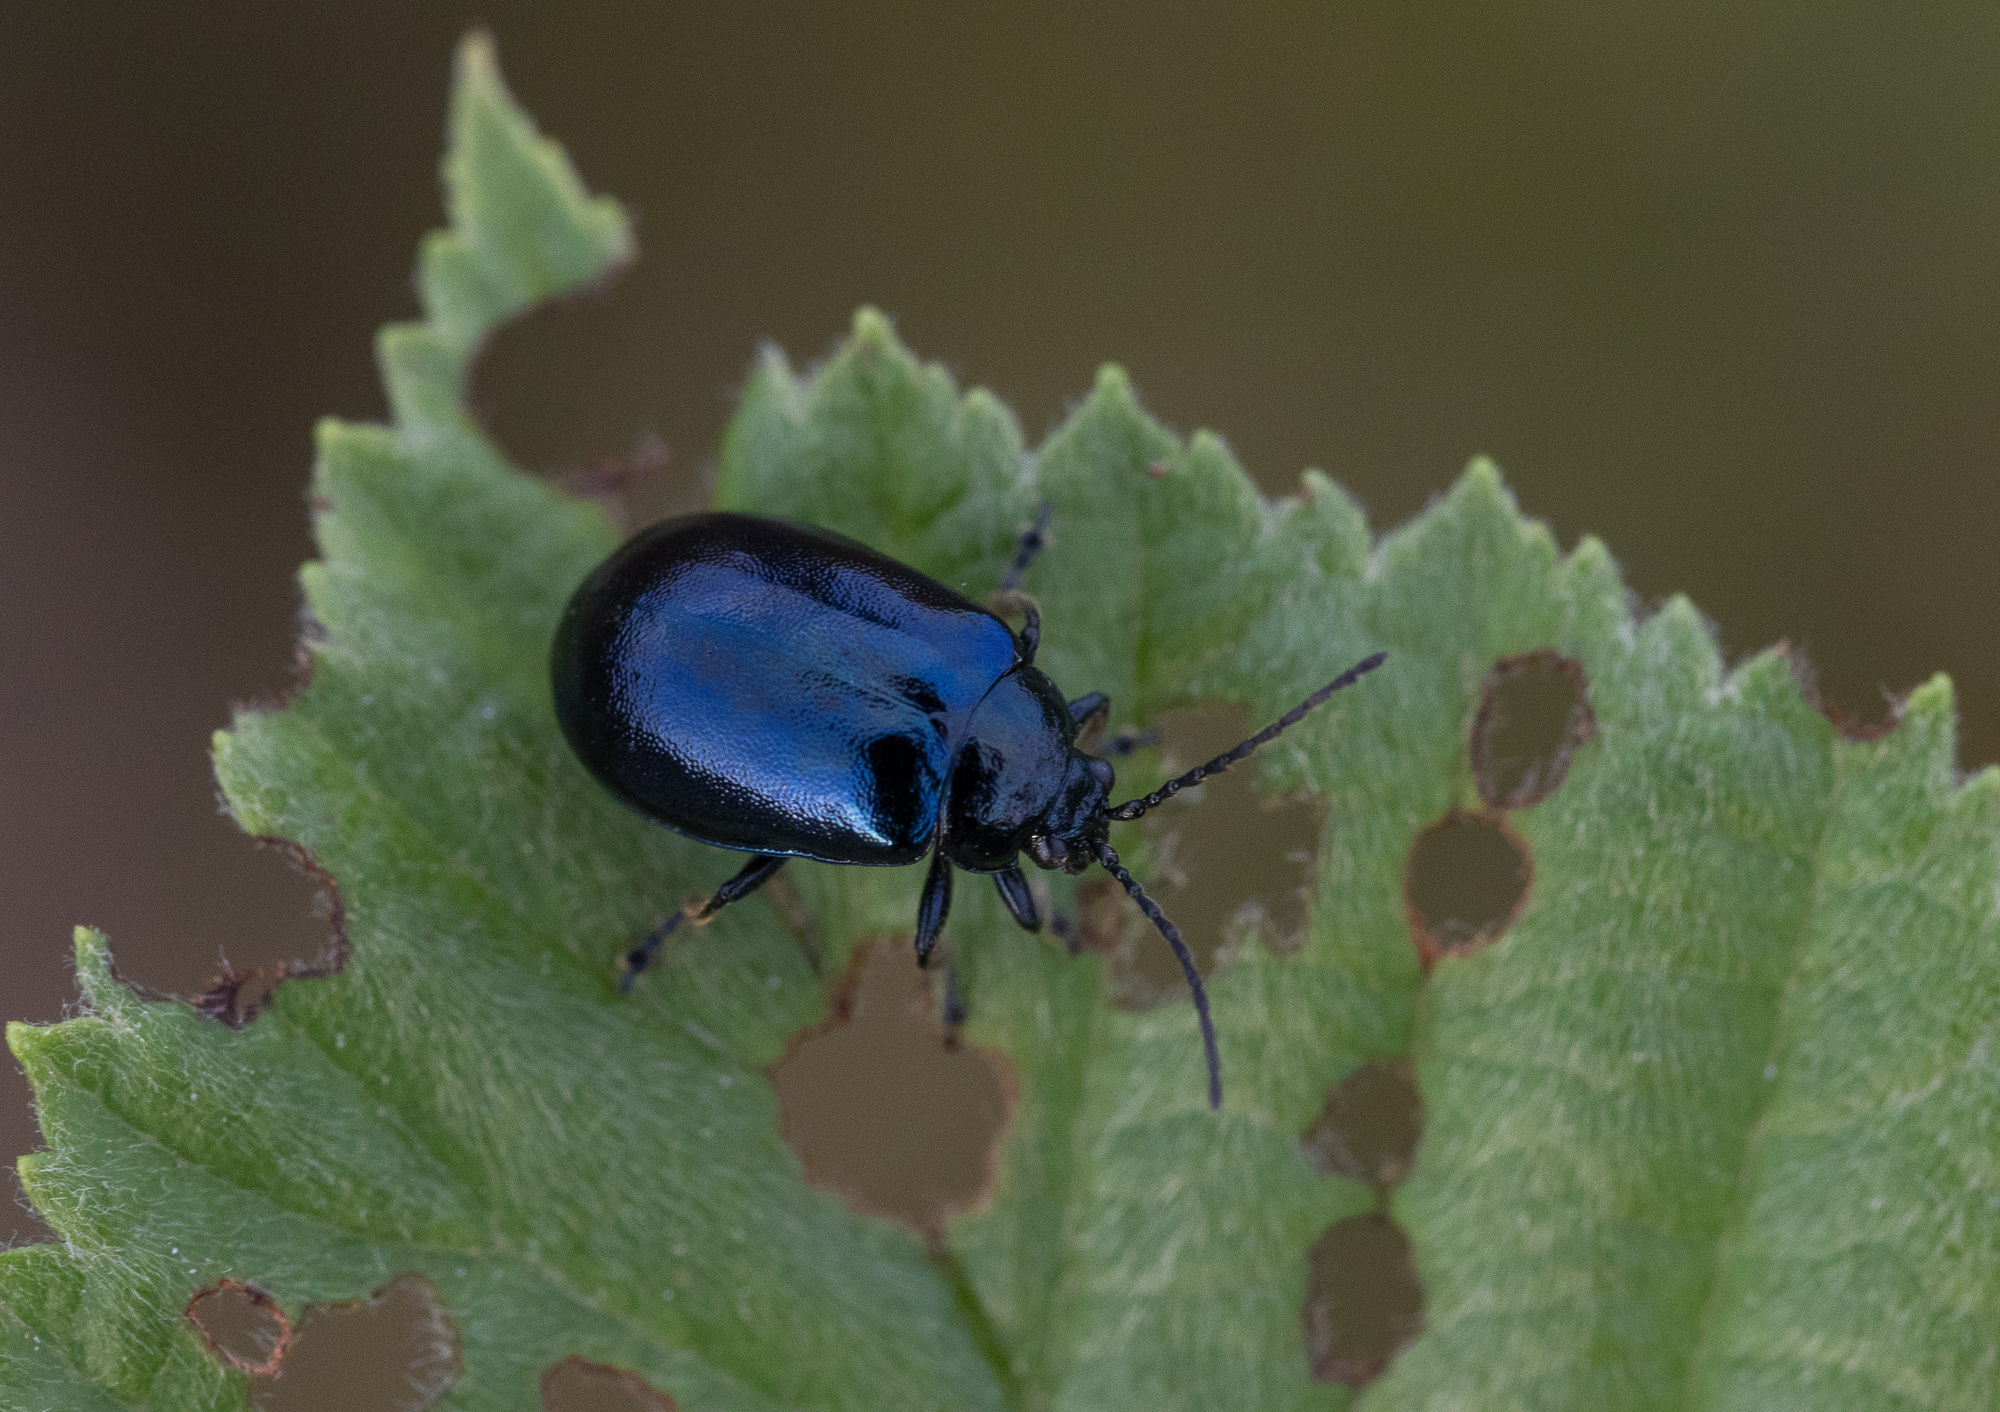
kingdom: Animalia
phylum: Arthropoda
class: Insecta
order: Coleoptera
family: Chrysomelidae
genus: Agelastica
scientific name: Agelastica alni
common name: Alder leaf beetle
